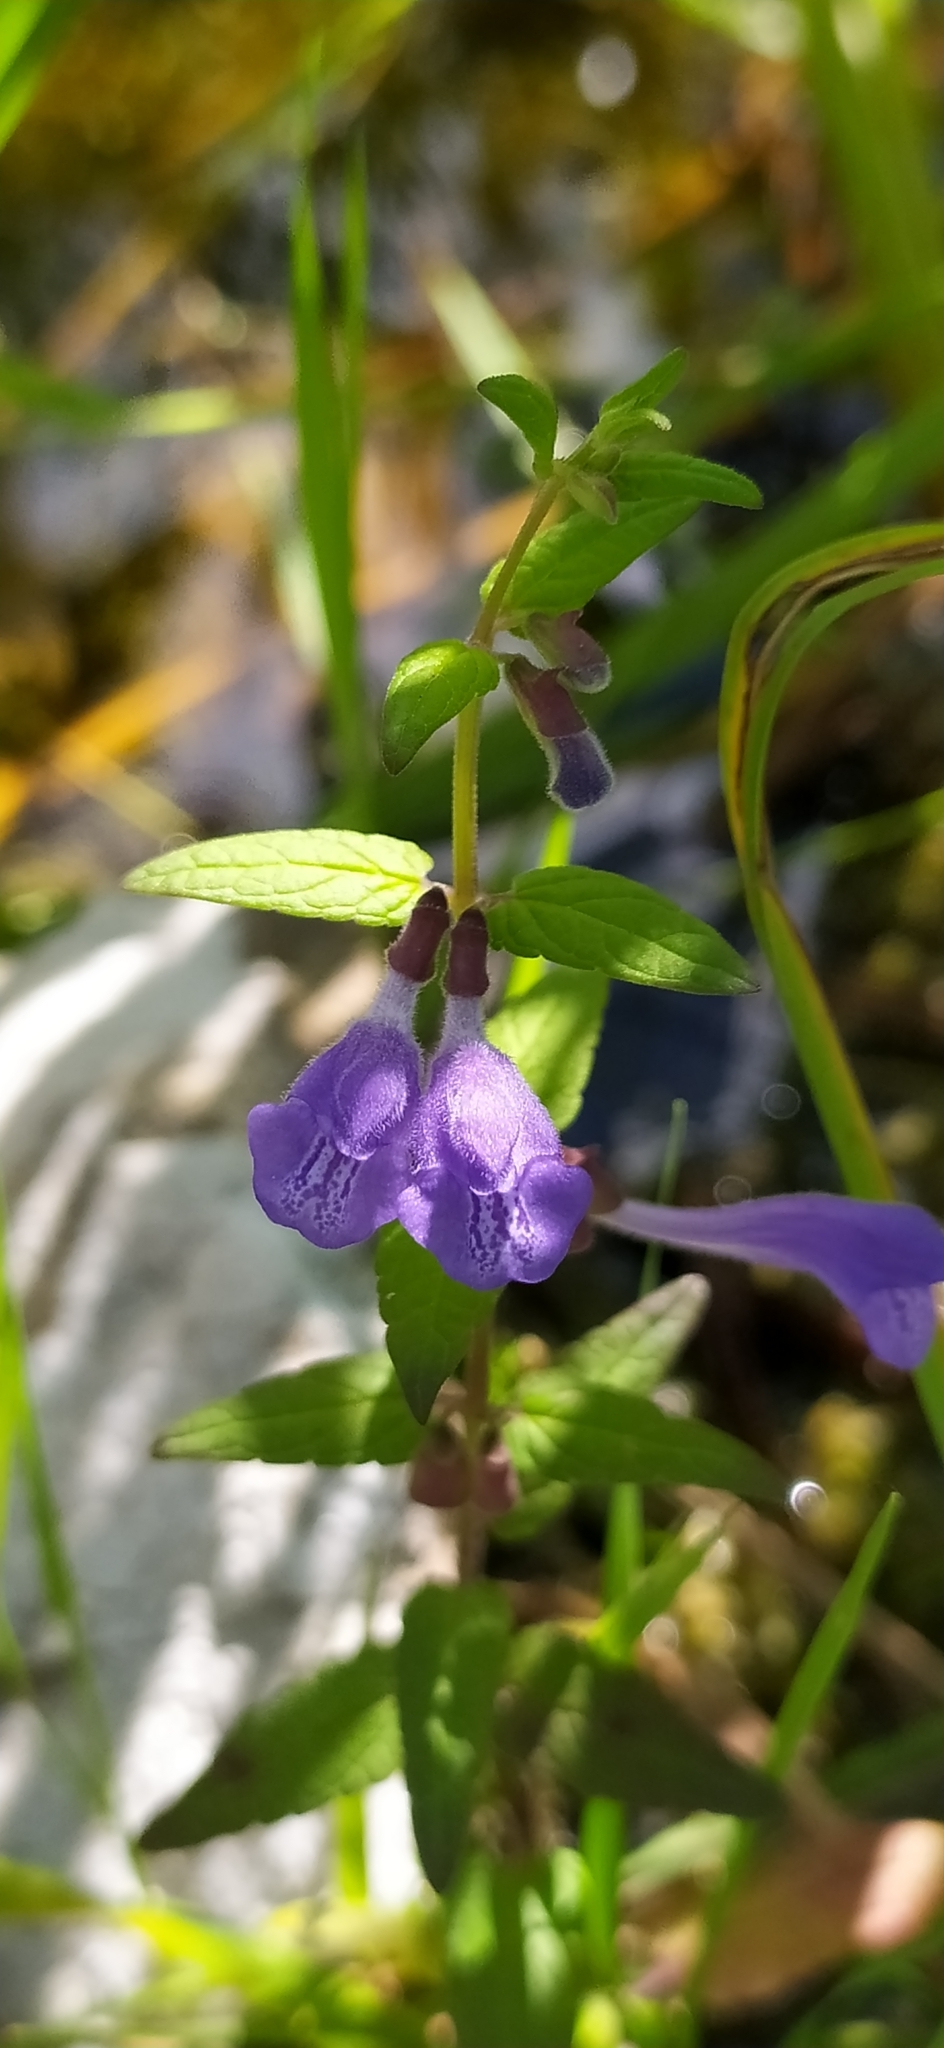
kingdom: Plantae
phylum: Tracheophyta
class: Magnoliopsida
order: Lamiales
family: Lamiaceae
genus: Scutellaria
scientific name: Scutellaria galericulata
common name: Skullcap
